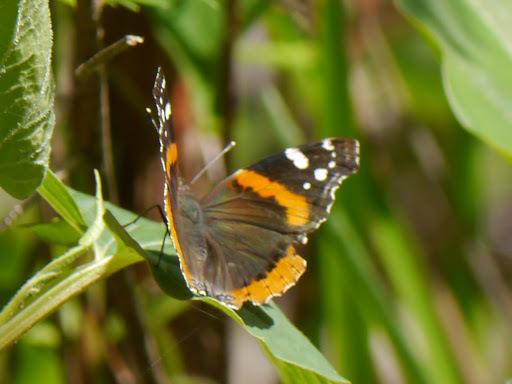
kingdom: Animalia
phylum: Arthropoda
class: Insecta
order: Lepidoptera
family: Nymphalidae
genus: Vanessa
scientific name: Vanessa atalanta
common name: Red admiral
